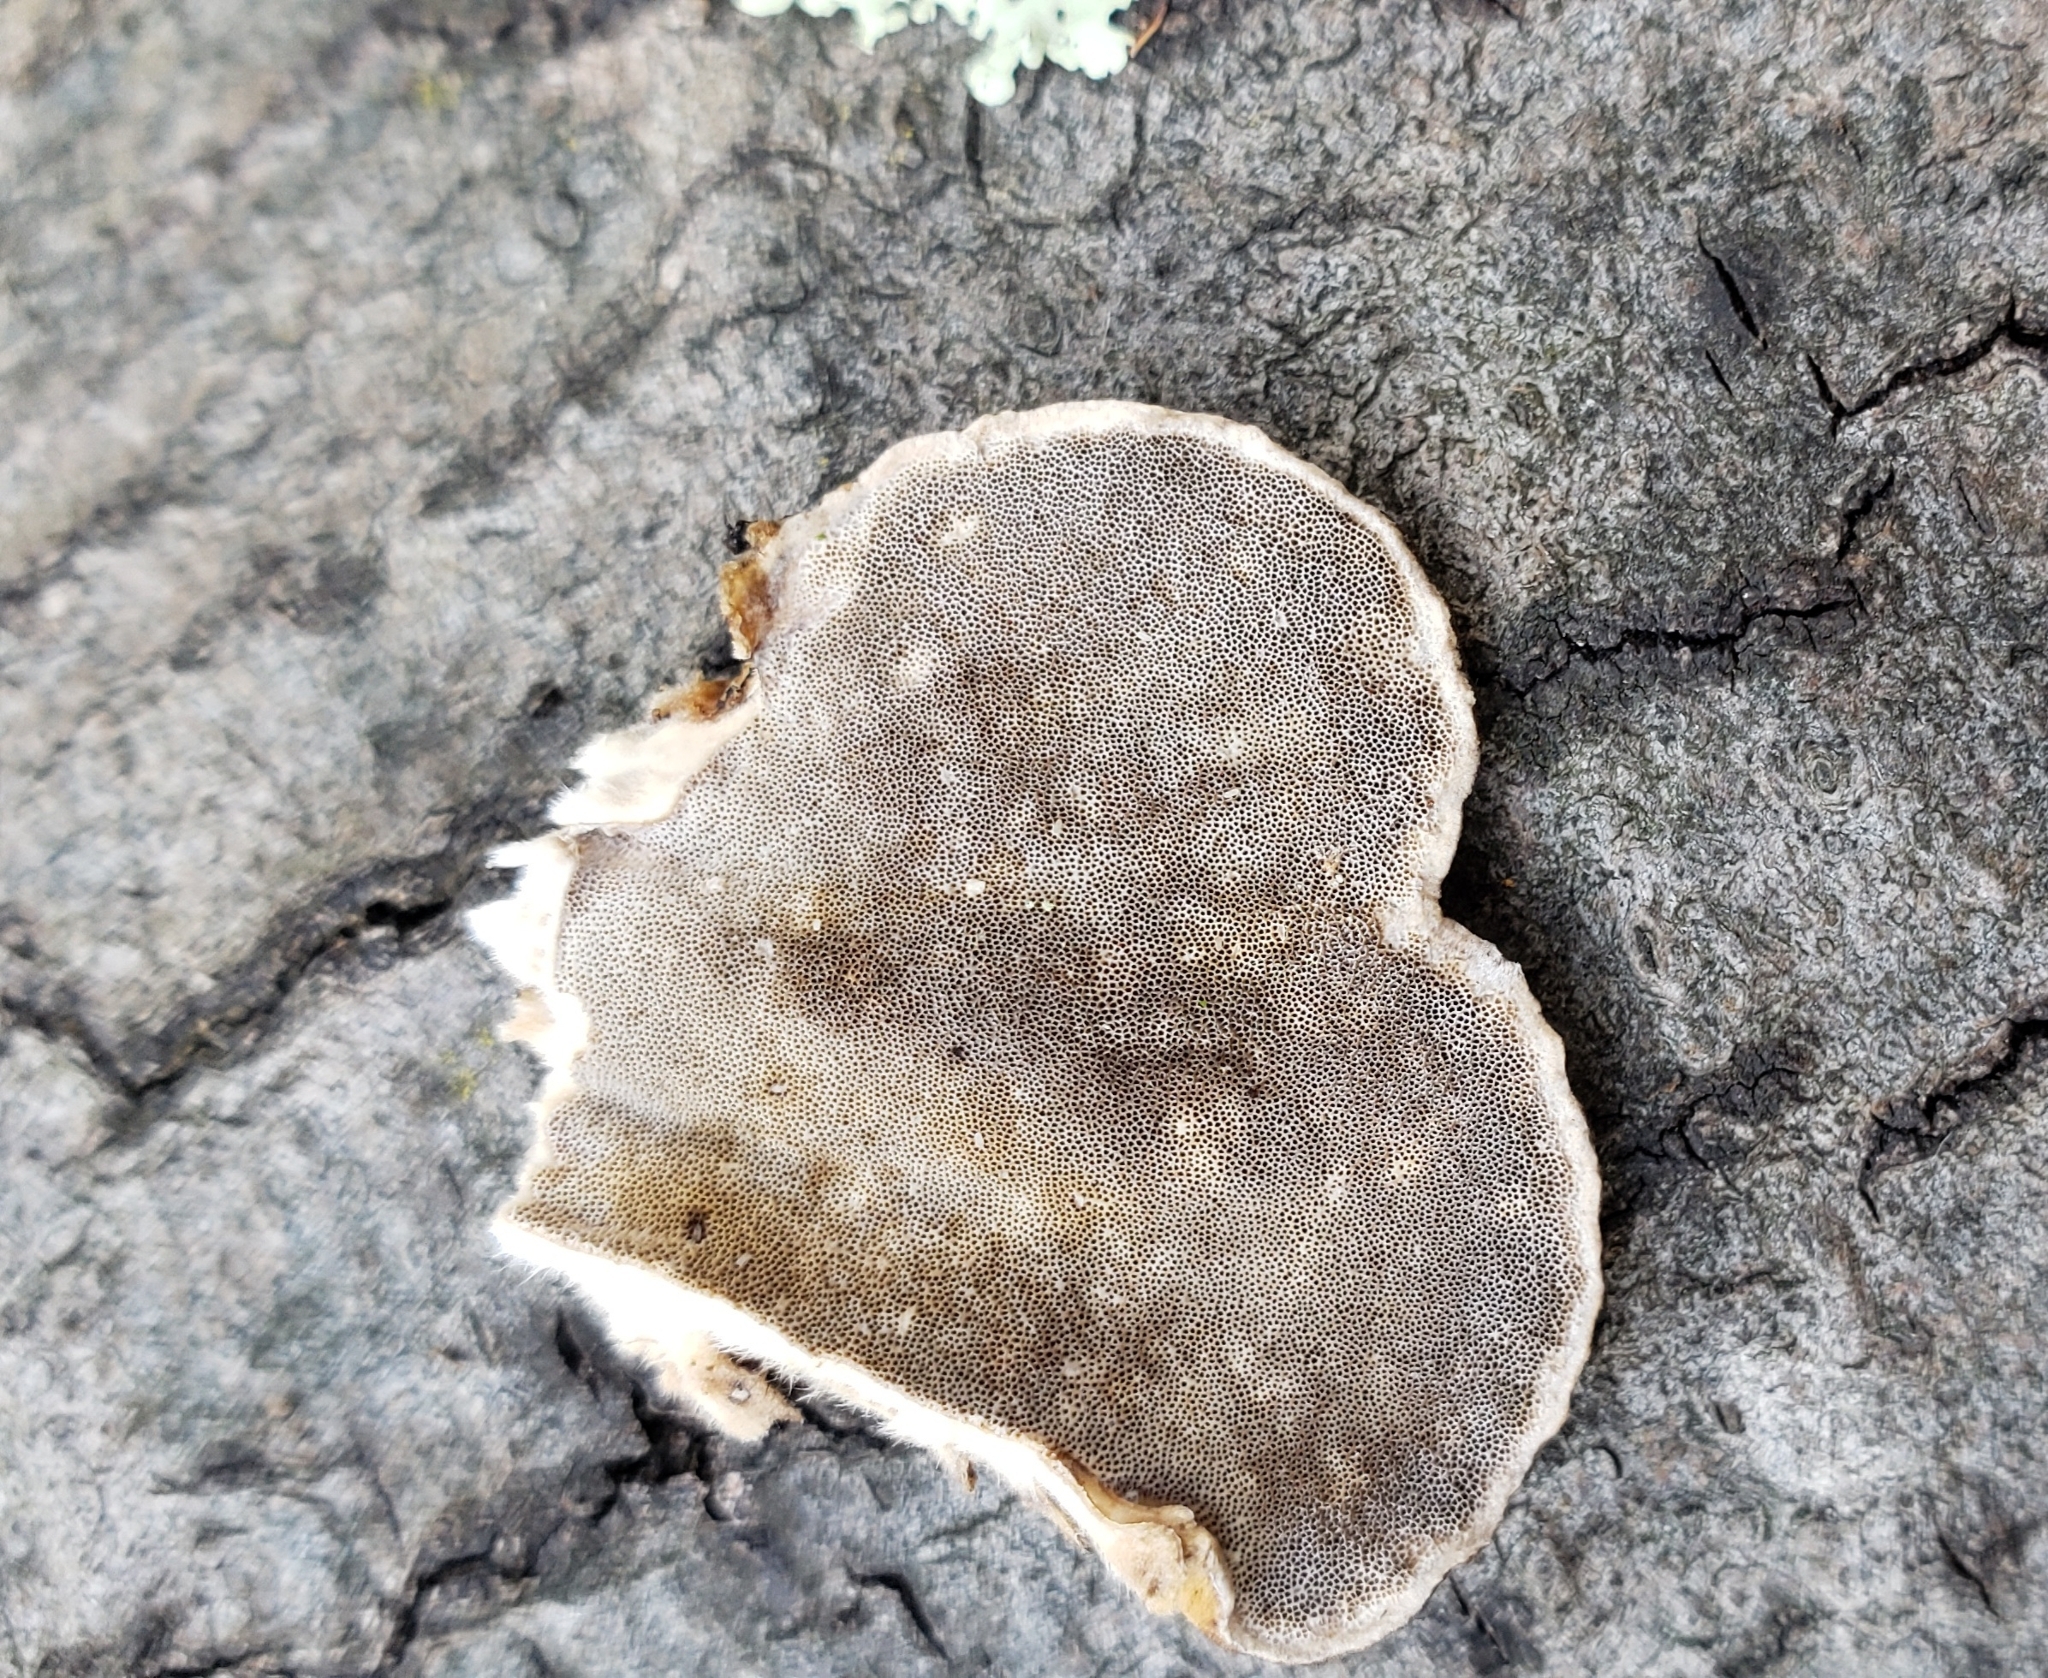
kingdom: Fungi
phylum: Basidiomycota
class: Agaricomycetes
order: Polyporales
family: Polyporaceae
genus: Trametes
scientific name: Trametes hirsuta
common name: Hairy bracket
